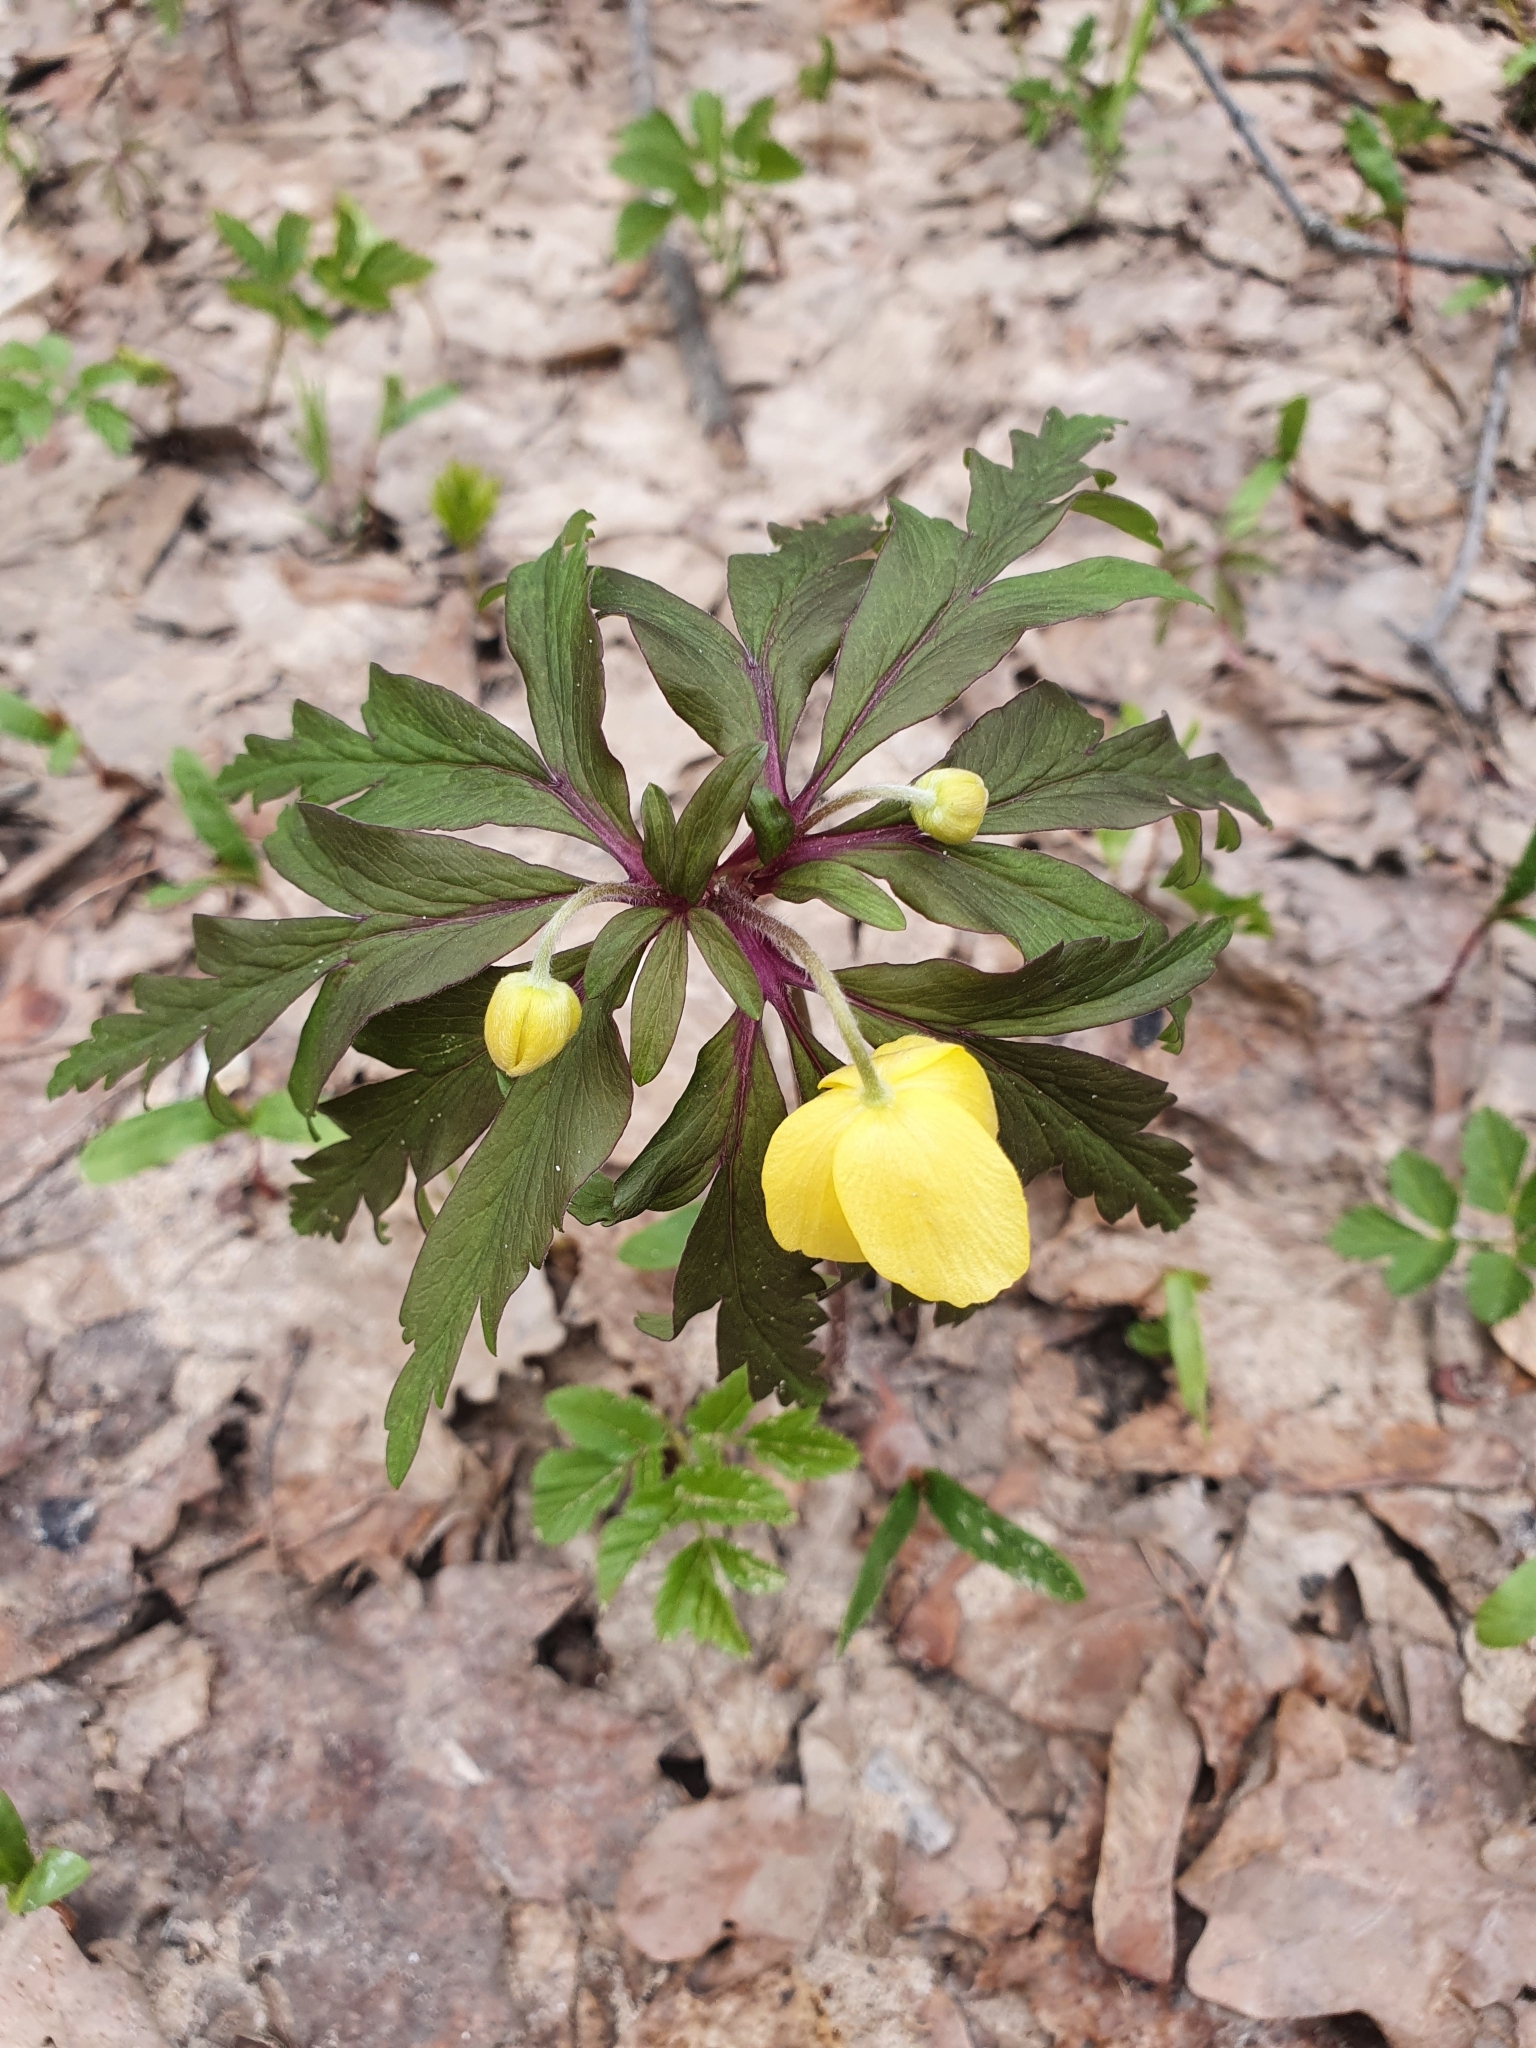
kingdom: Plantae
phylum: Tracheophyta
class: Magnoliopsida
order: Ranunculales
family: Ranunculaceae
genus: Anemone
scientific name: Anemone ranunculoides
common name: Yellow anemone
